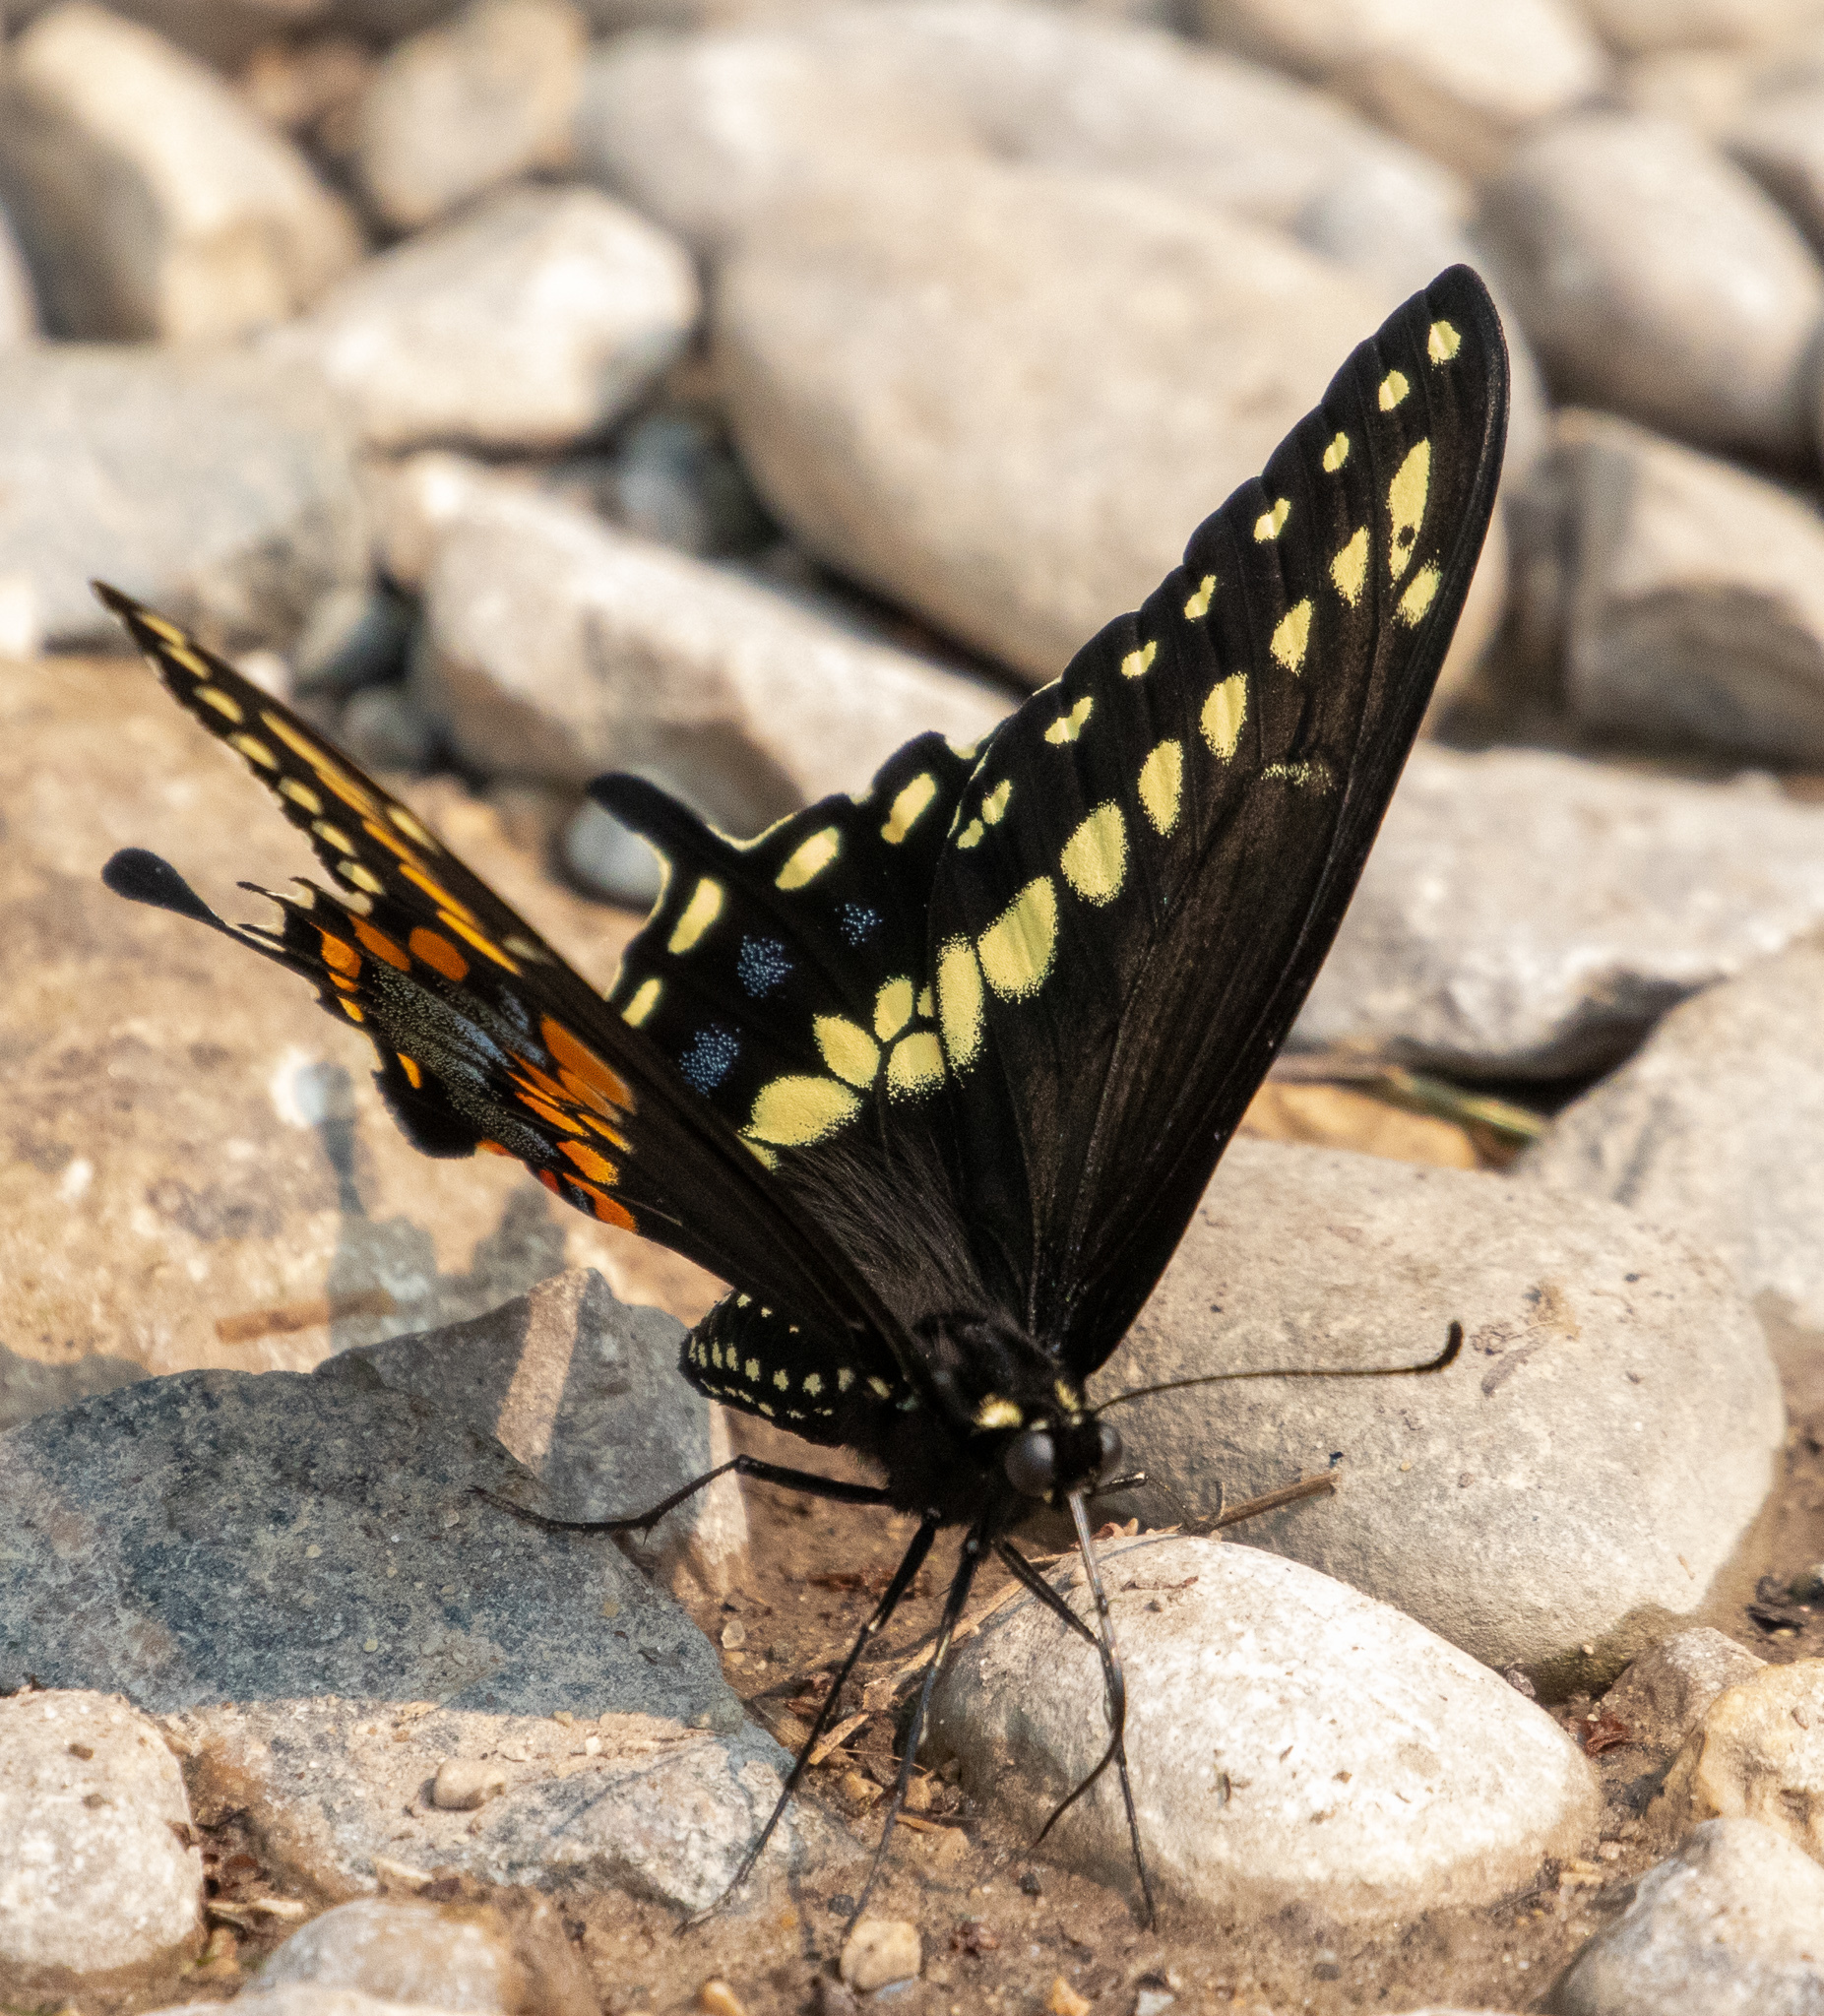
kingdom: Animalia
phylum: Arthropoda
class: Insecta
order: Lepidoptera
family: Papilionidae
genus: Papilio
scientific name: Papilio polyxenes
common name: Black swallowtail
